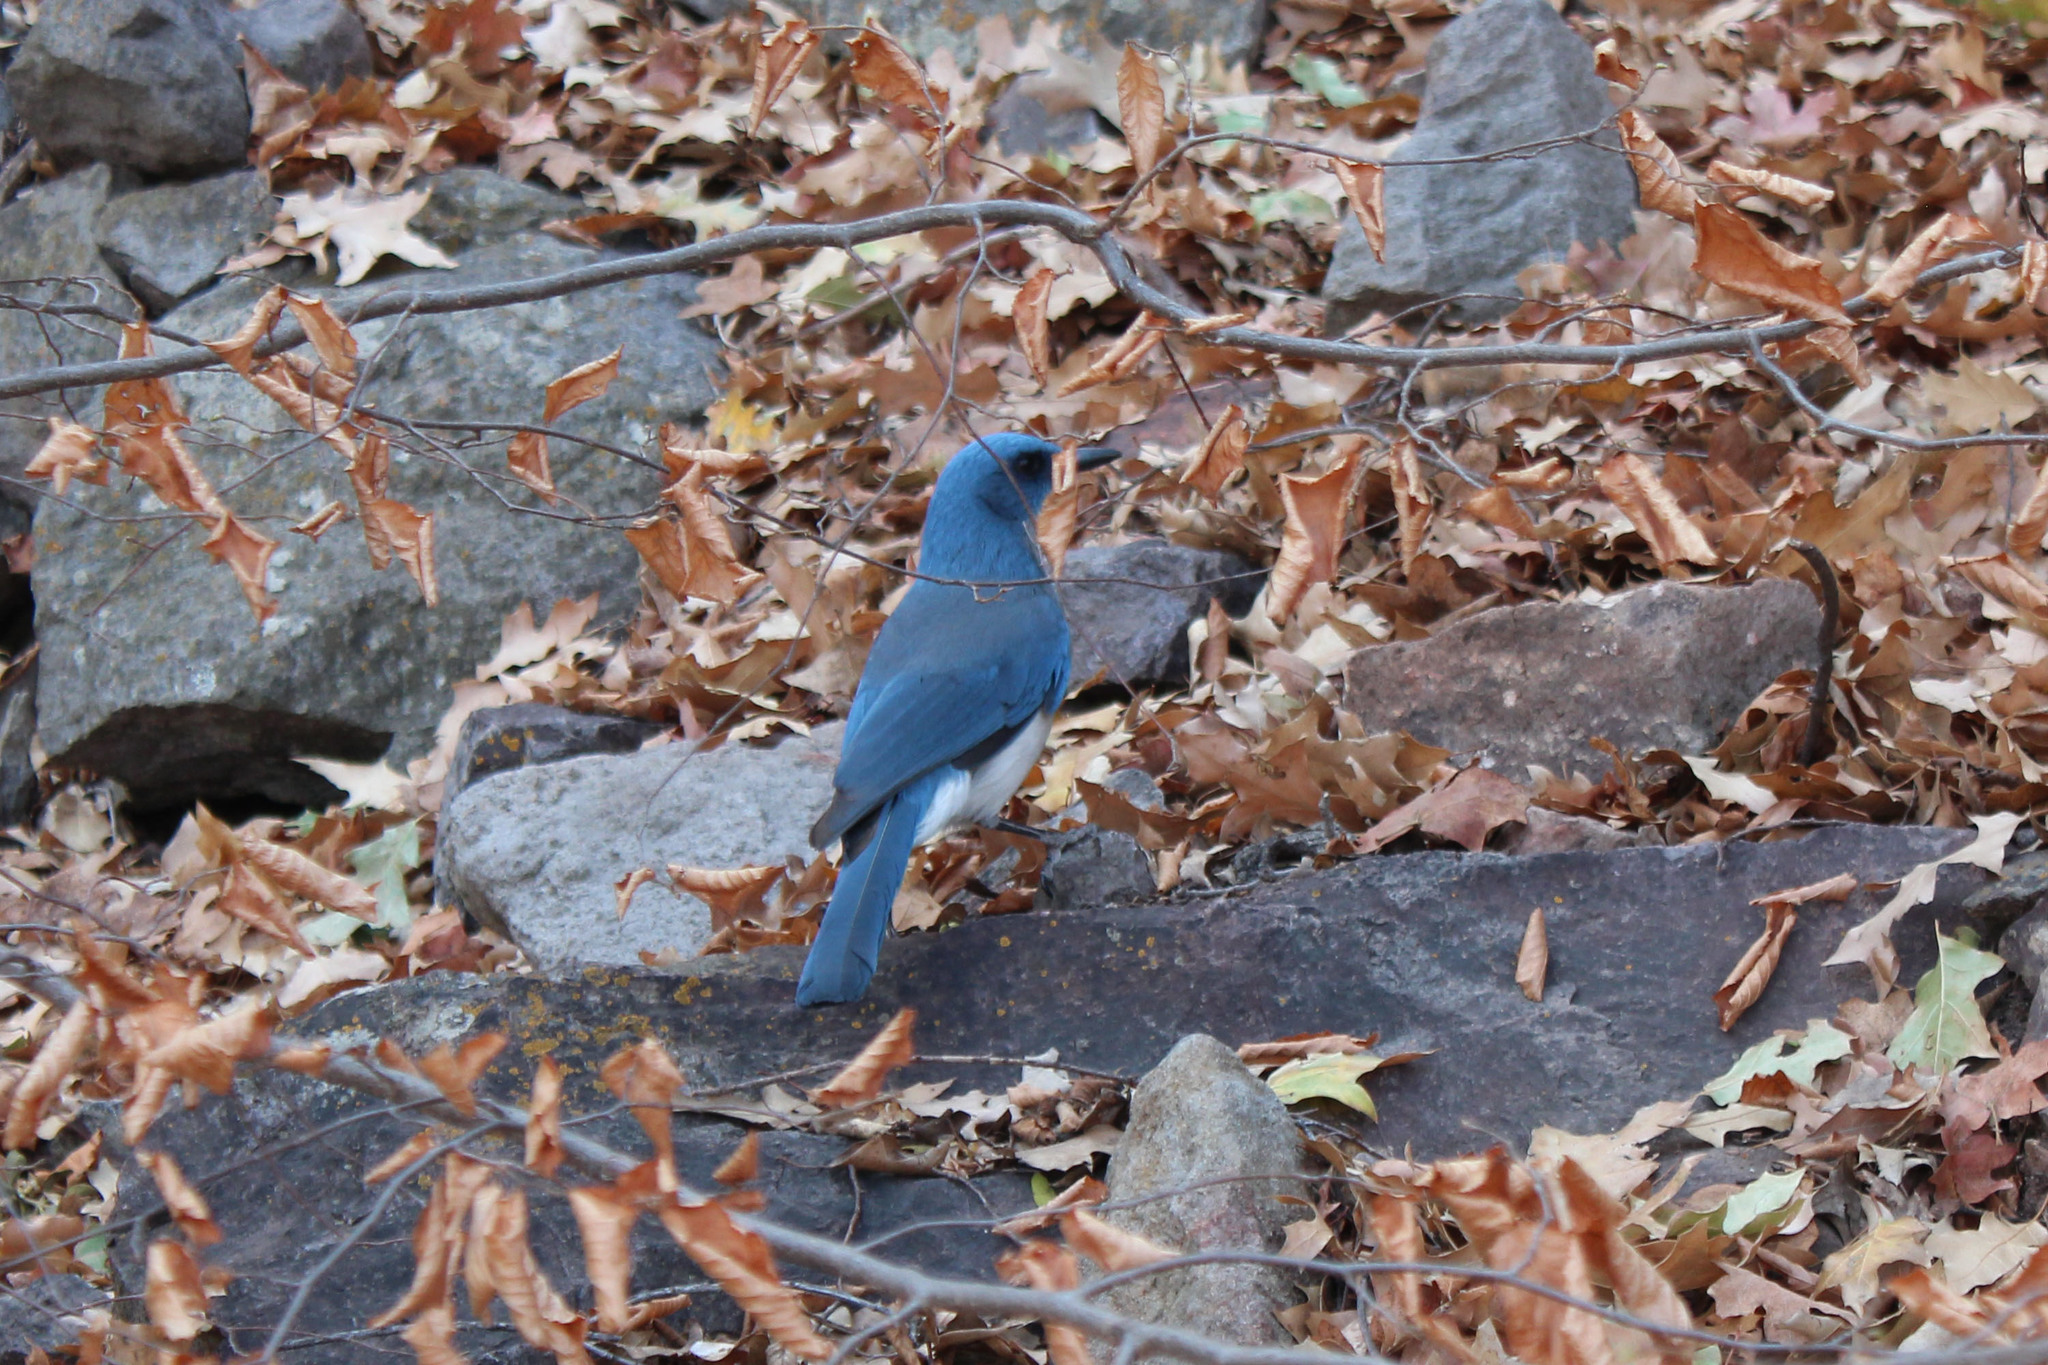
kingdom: Animalia
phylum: Chordata
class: Aves
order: Passeriformes
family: Corvidae
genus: Aphelocoma
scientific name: Aphelocoma wollweberi
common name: Mexican jay
